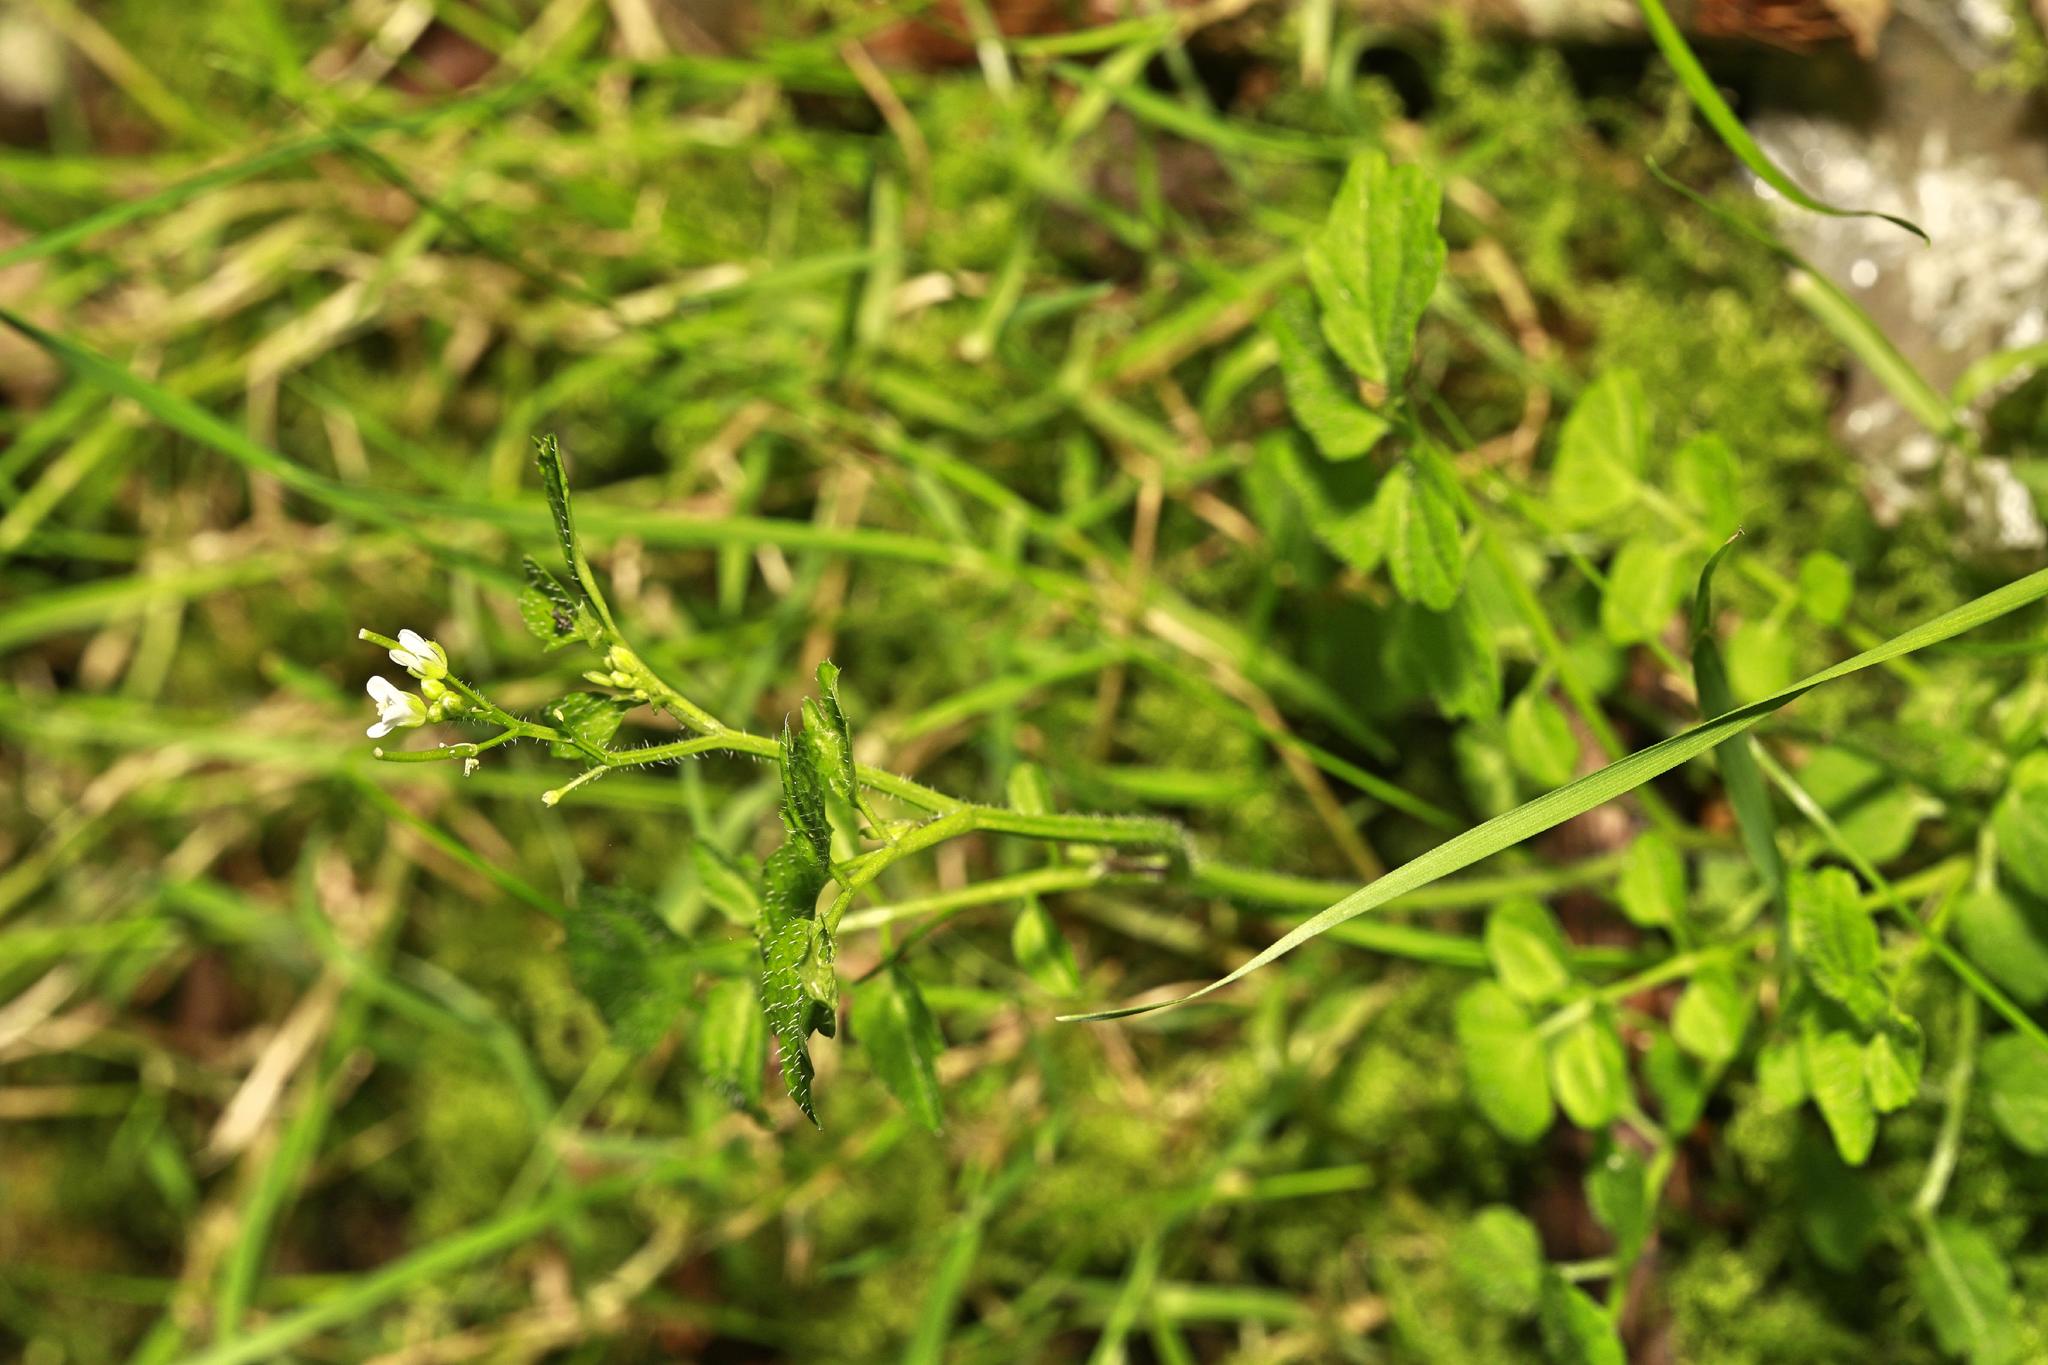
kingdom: Plantae
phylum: Tracheophyta
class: Magnoliopsida
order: Brassicales
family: Brassicaceae
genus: Cardamine
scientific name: Cardamine hirsuta
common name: Hairy bittercress
